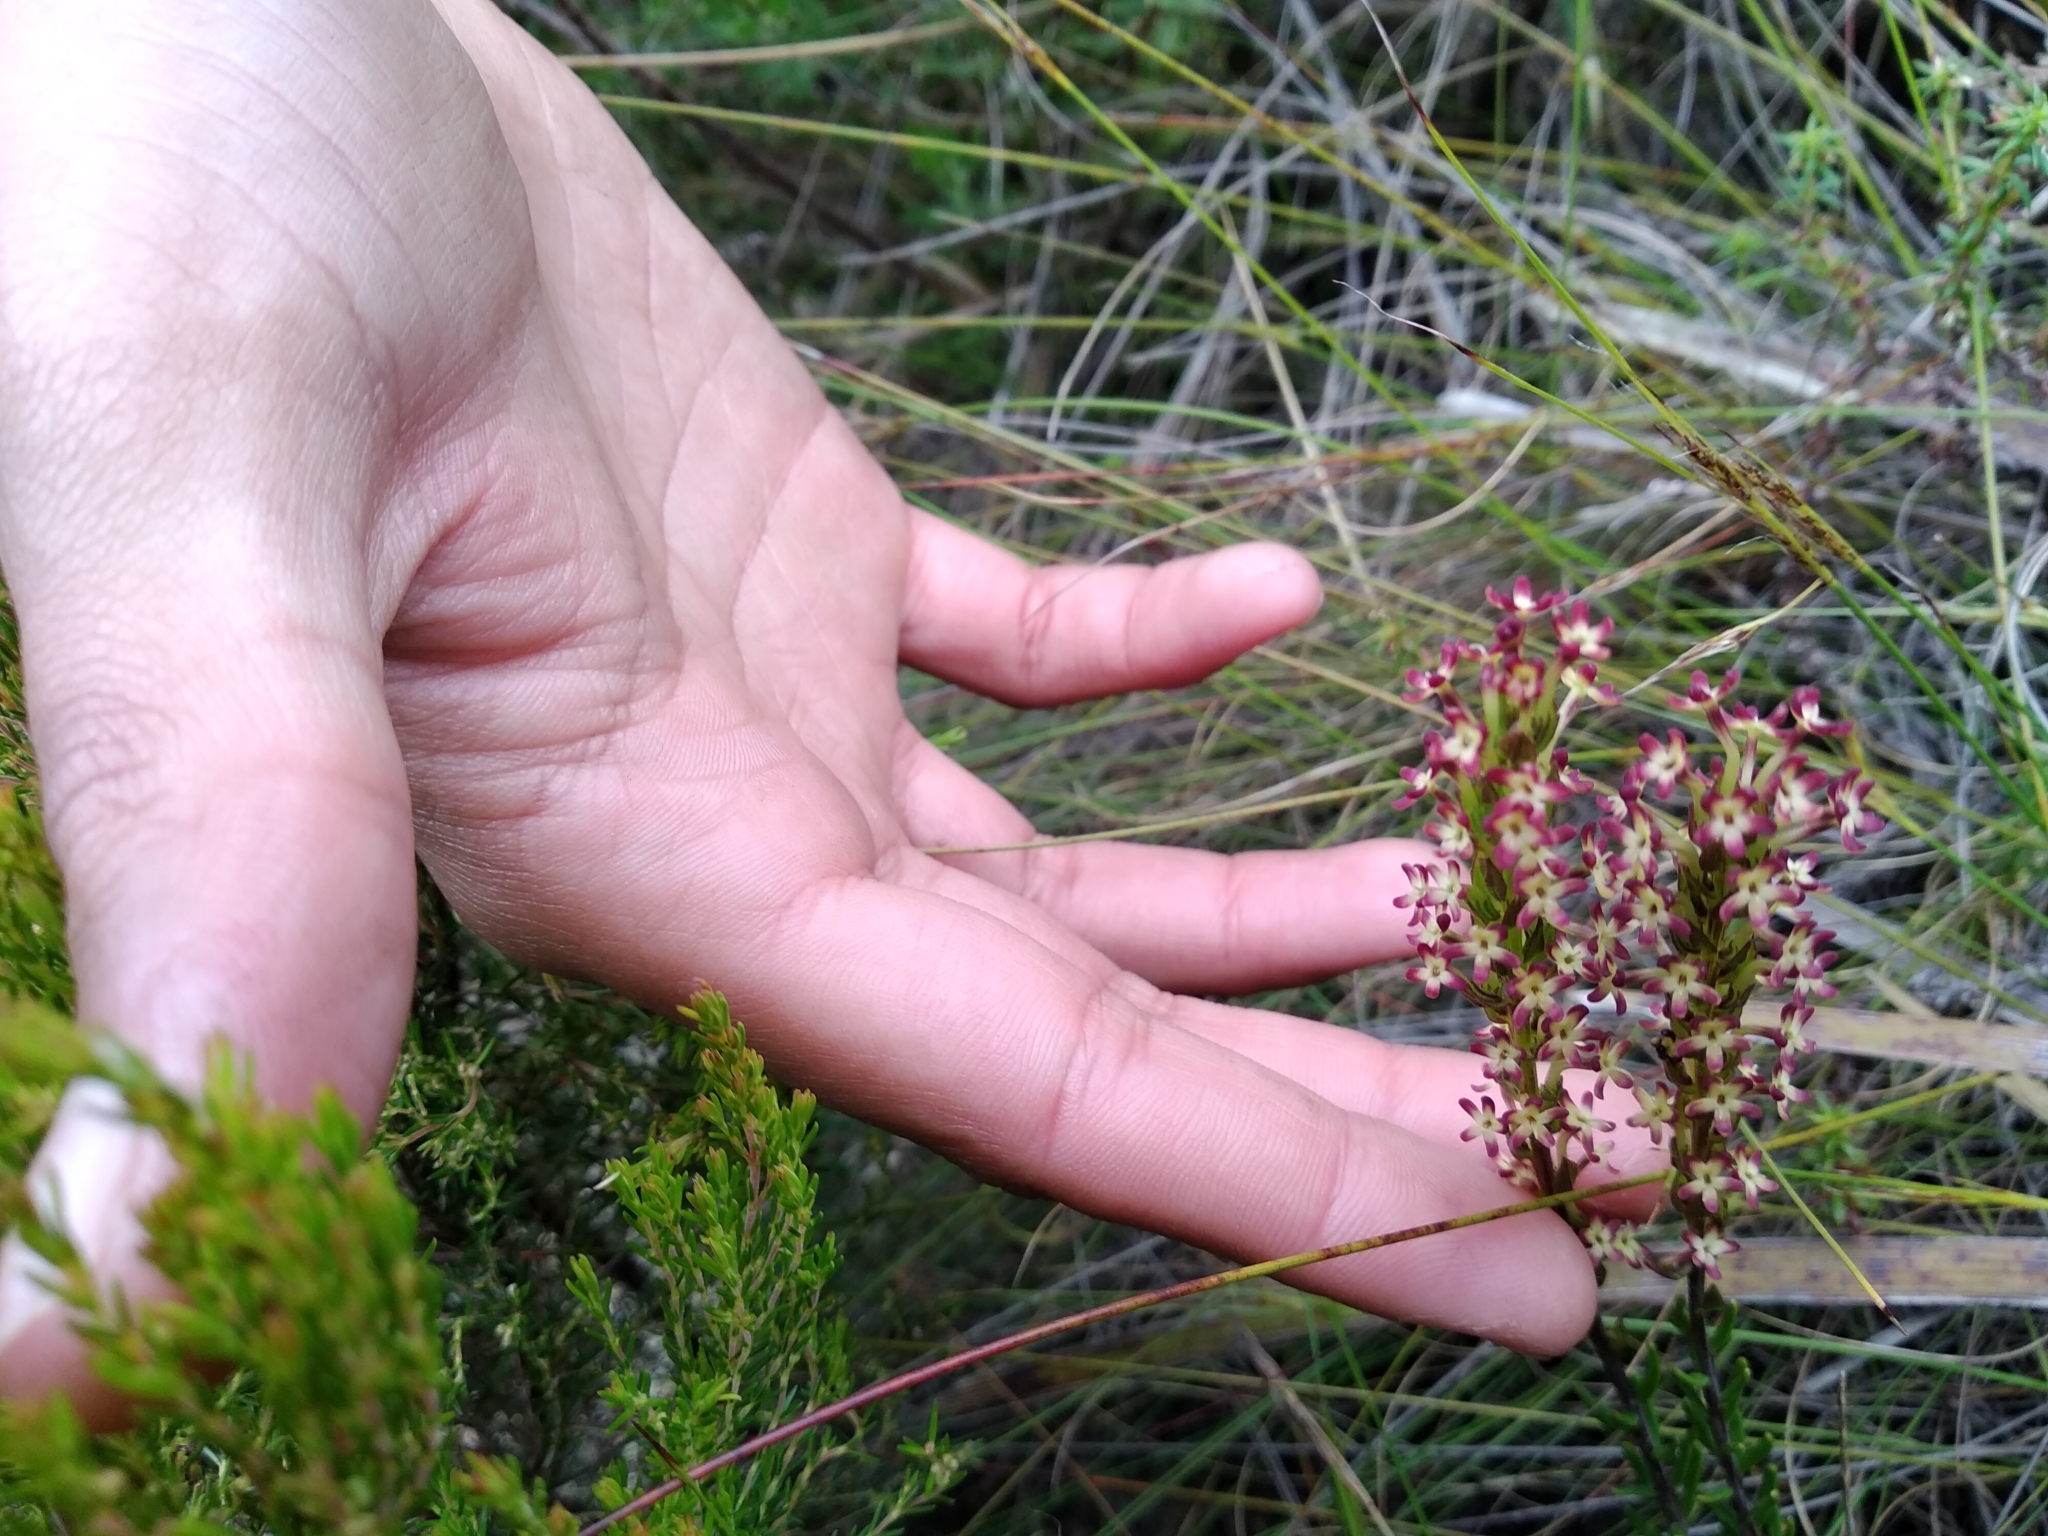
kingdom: Plantae
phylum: Tracheophyta
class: Magnoliopsida
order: Lamiales
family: Scrophulariaceae
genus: Microdon
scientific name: Microdon dubius
